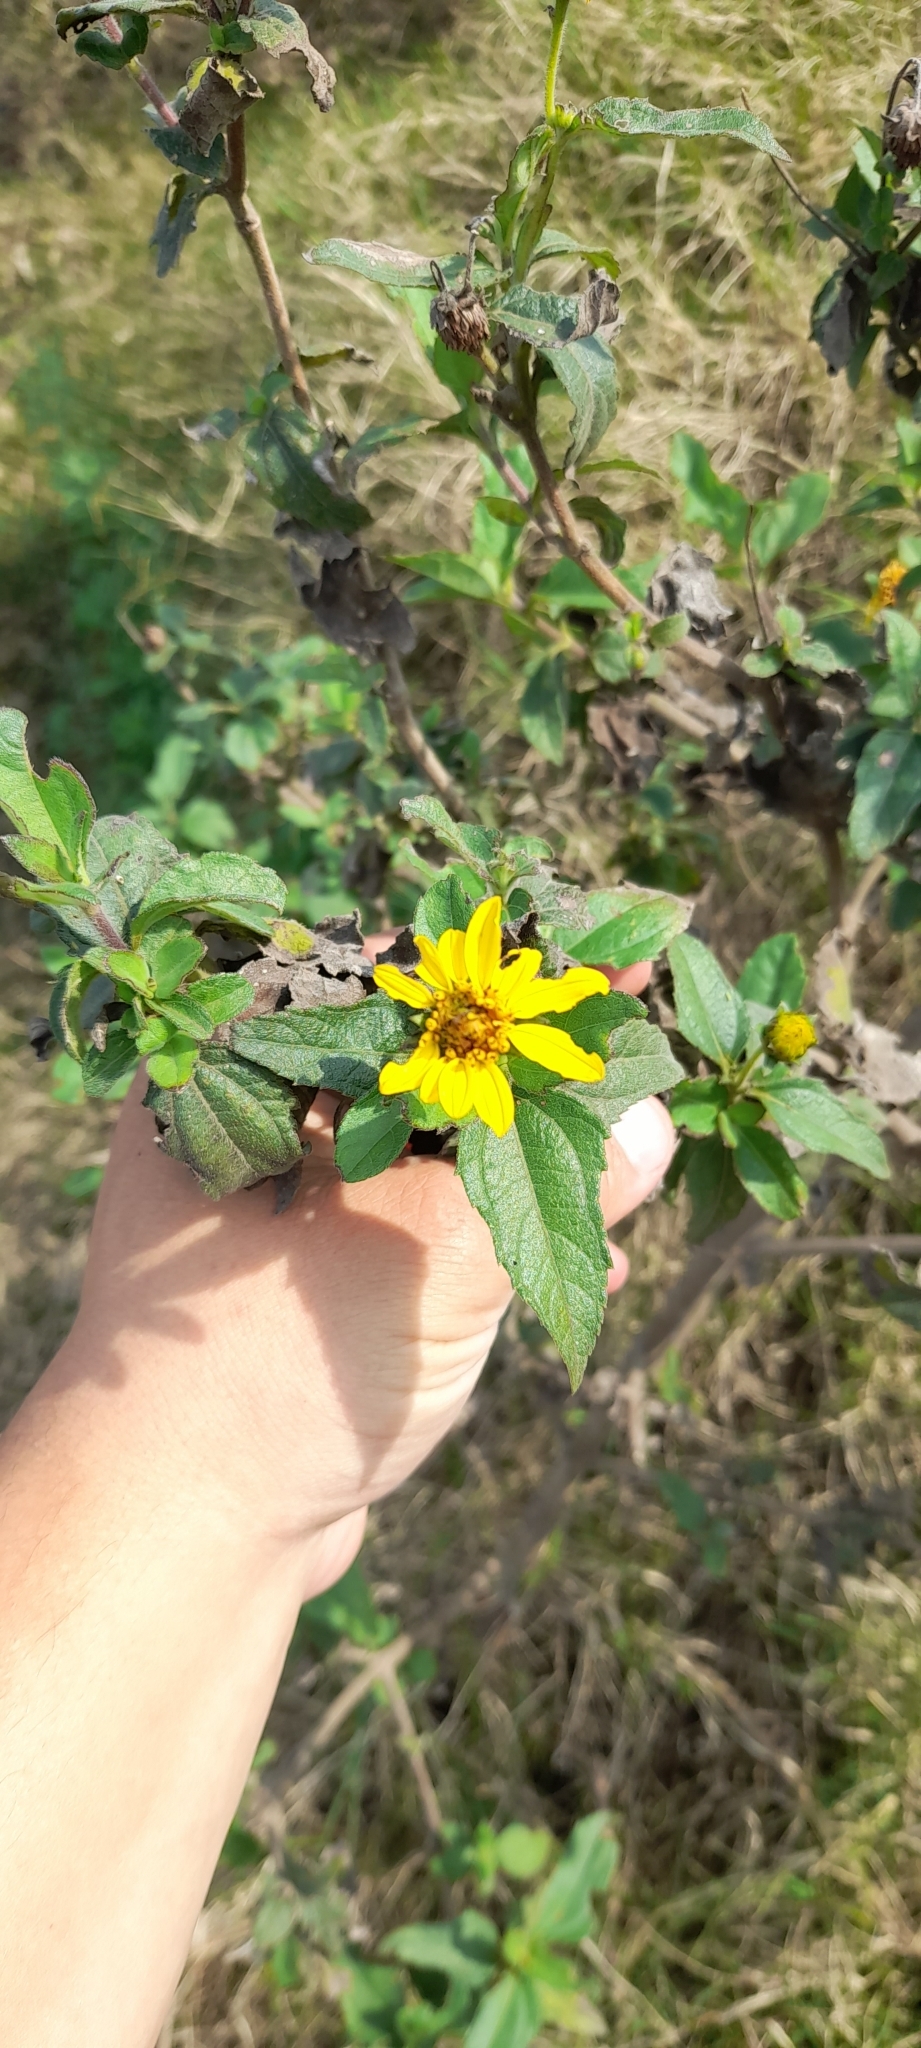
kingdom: Plantae
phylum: Tracheophyta
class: Magnoliopsida
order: Asterales
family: Asteraceae
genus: Wedelia
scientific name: Wedelia silphioides
